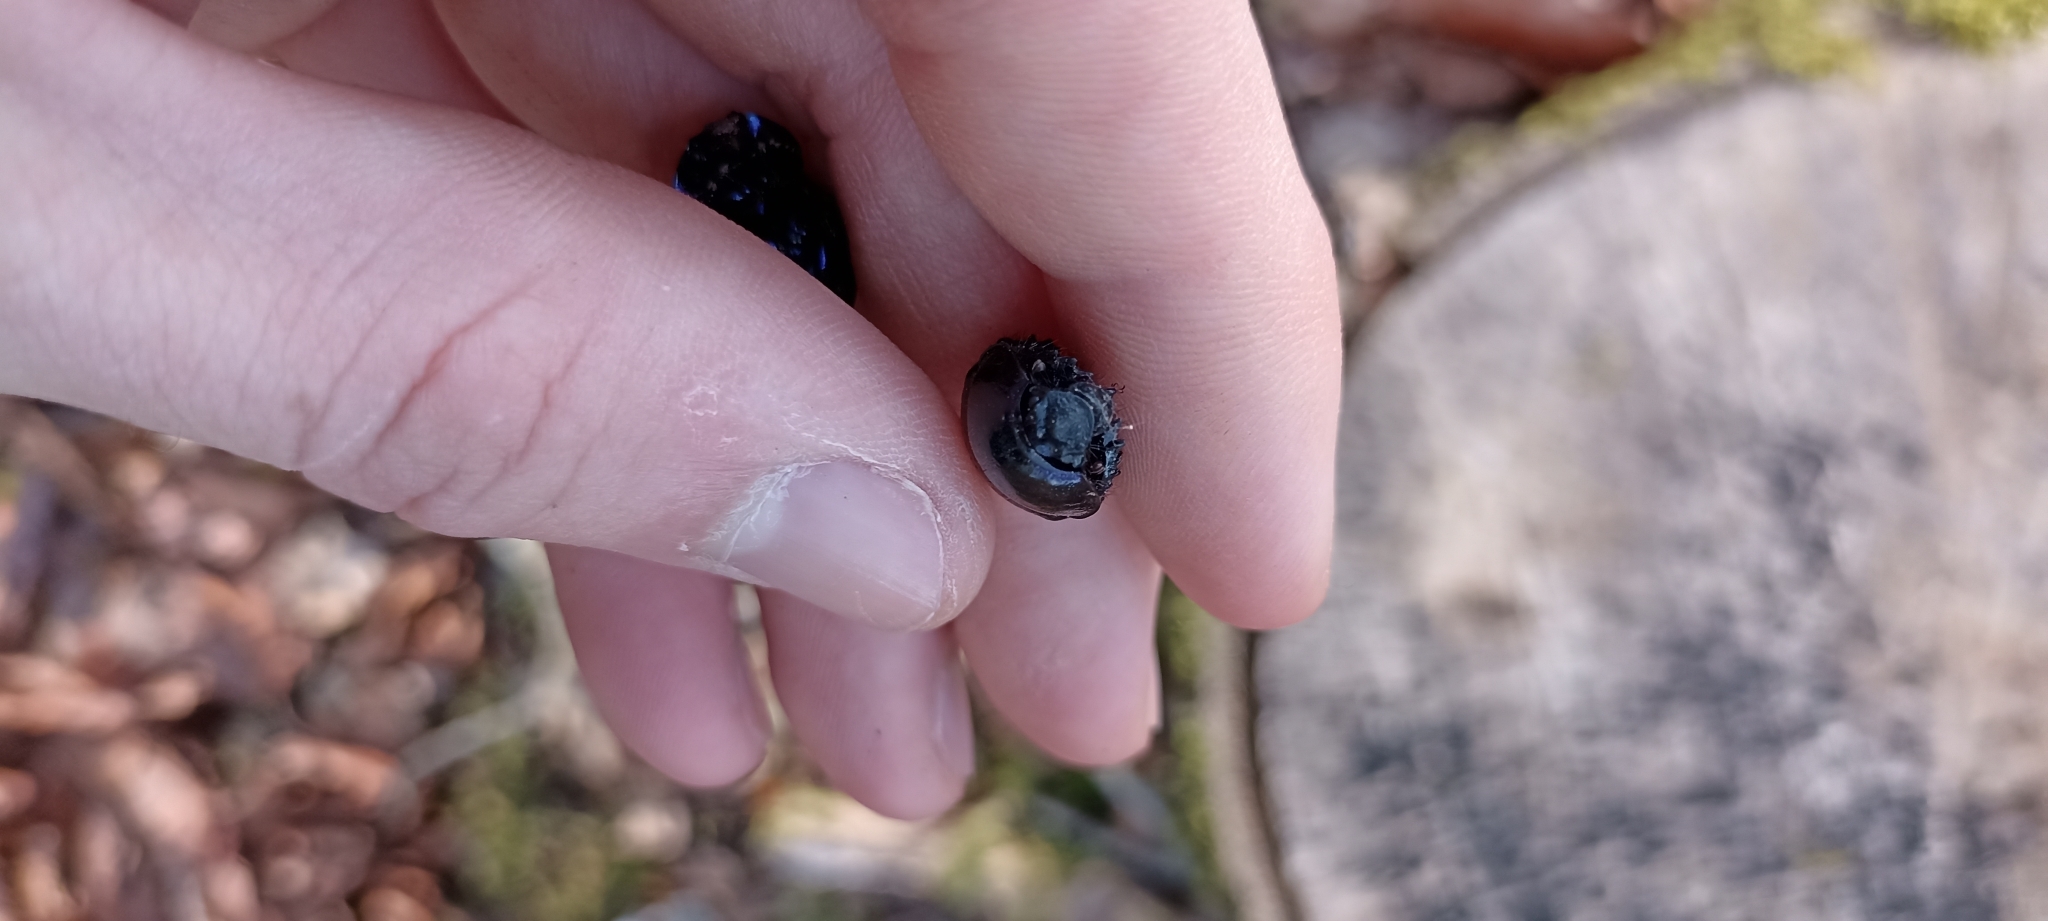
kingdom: Animalia
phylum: Arthropoda
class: Insecta
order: Coleoptera
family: Geotrupidae
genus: Anoplotrupes
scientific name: Anoplotrupes stercorosus
